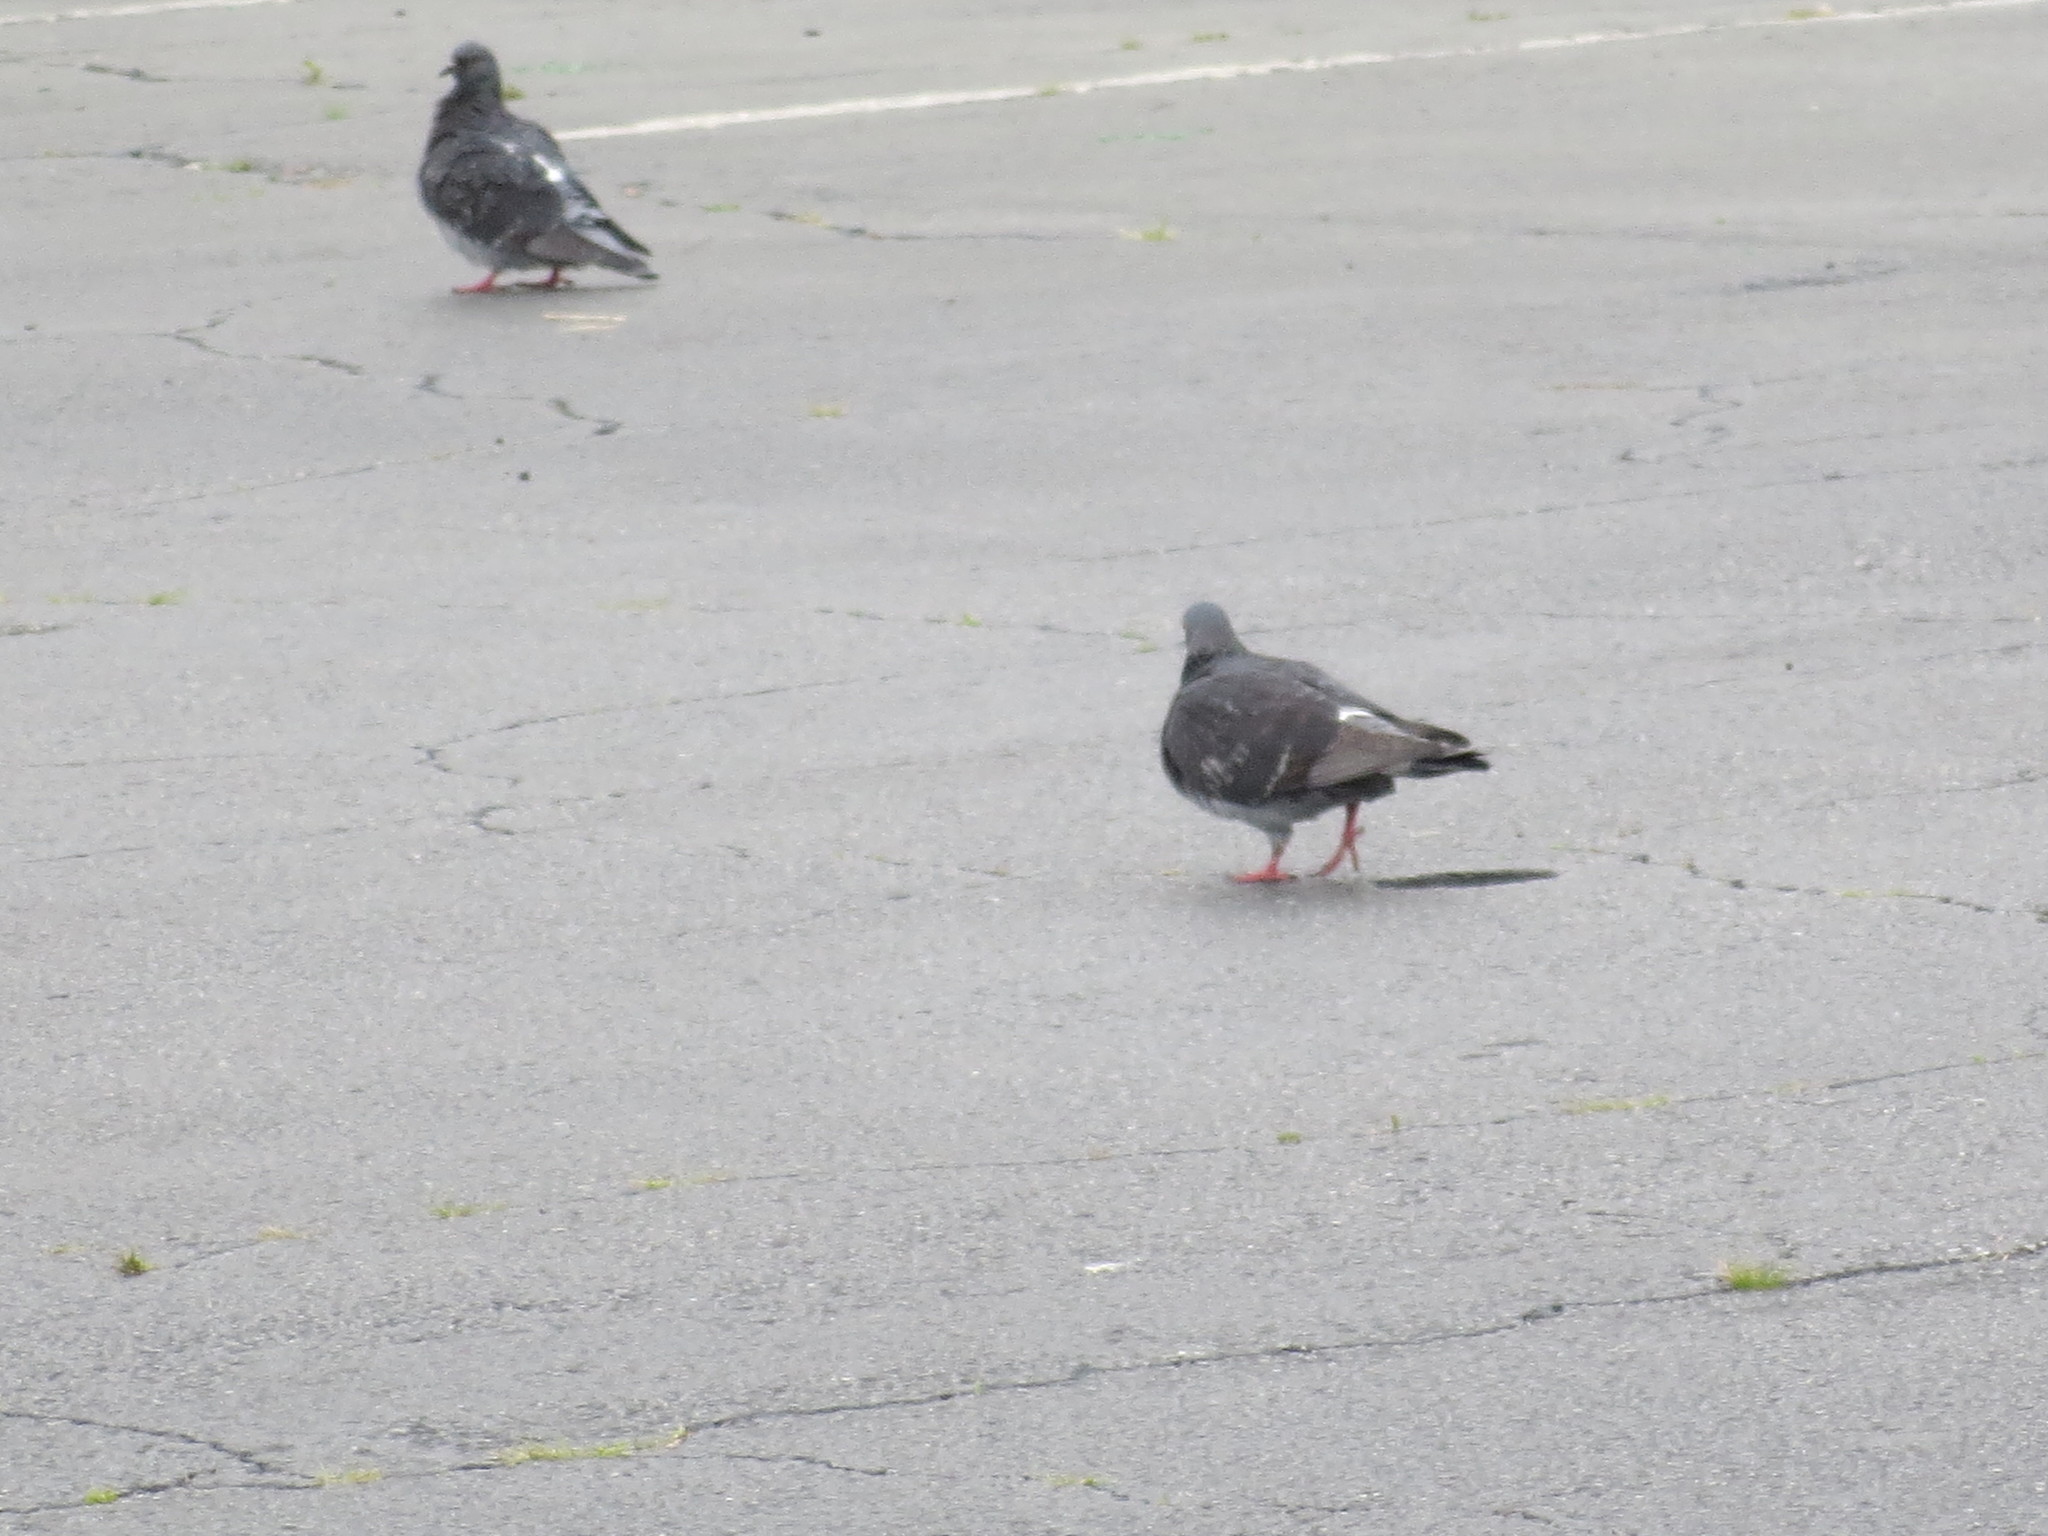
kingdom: Animalia
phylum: Chordata
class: Aves
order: Columbiformes
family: Columbidae
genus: Columba
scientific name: Columba livia
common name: Rock pigeon
